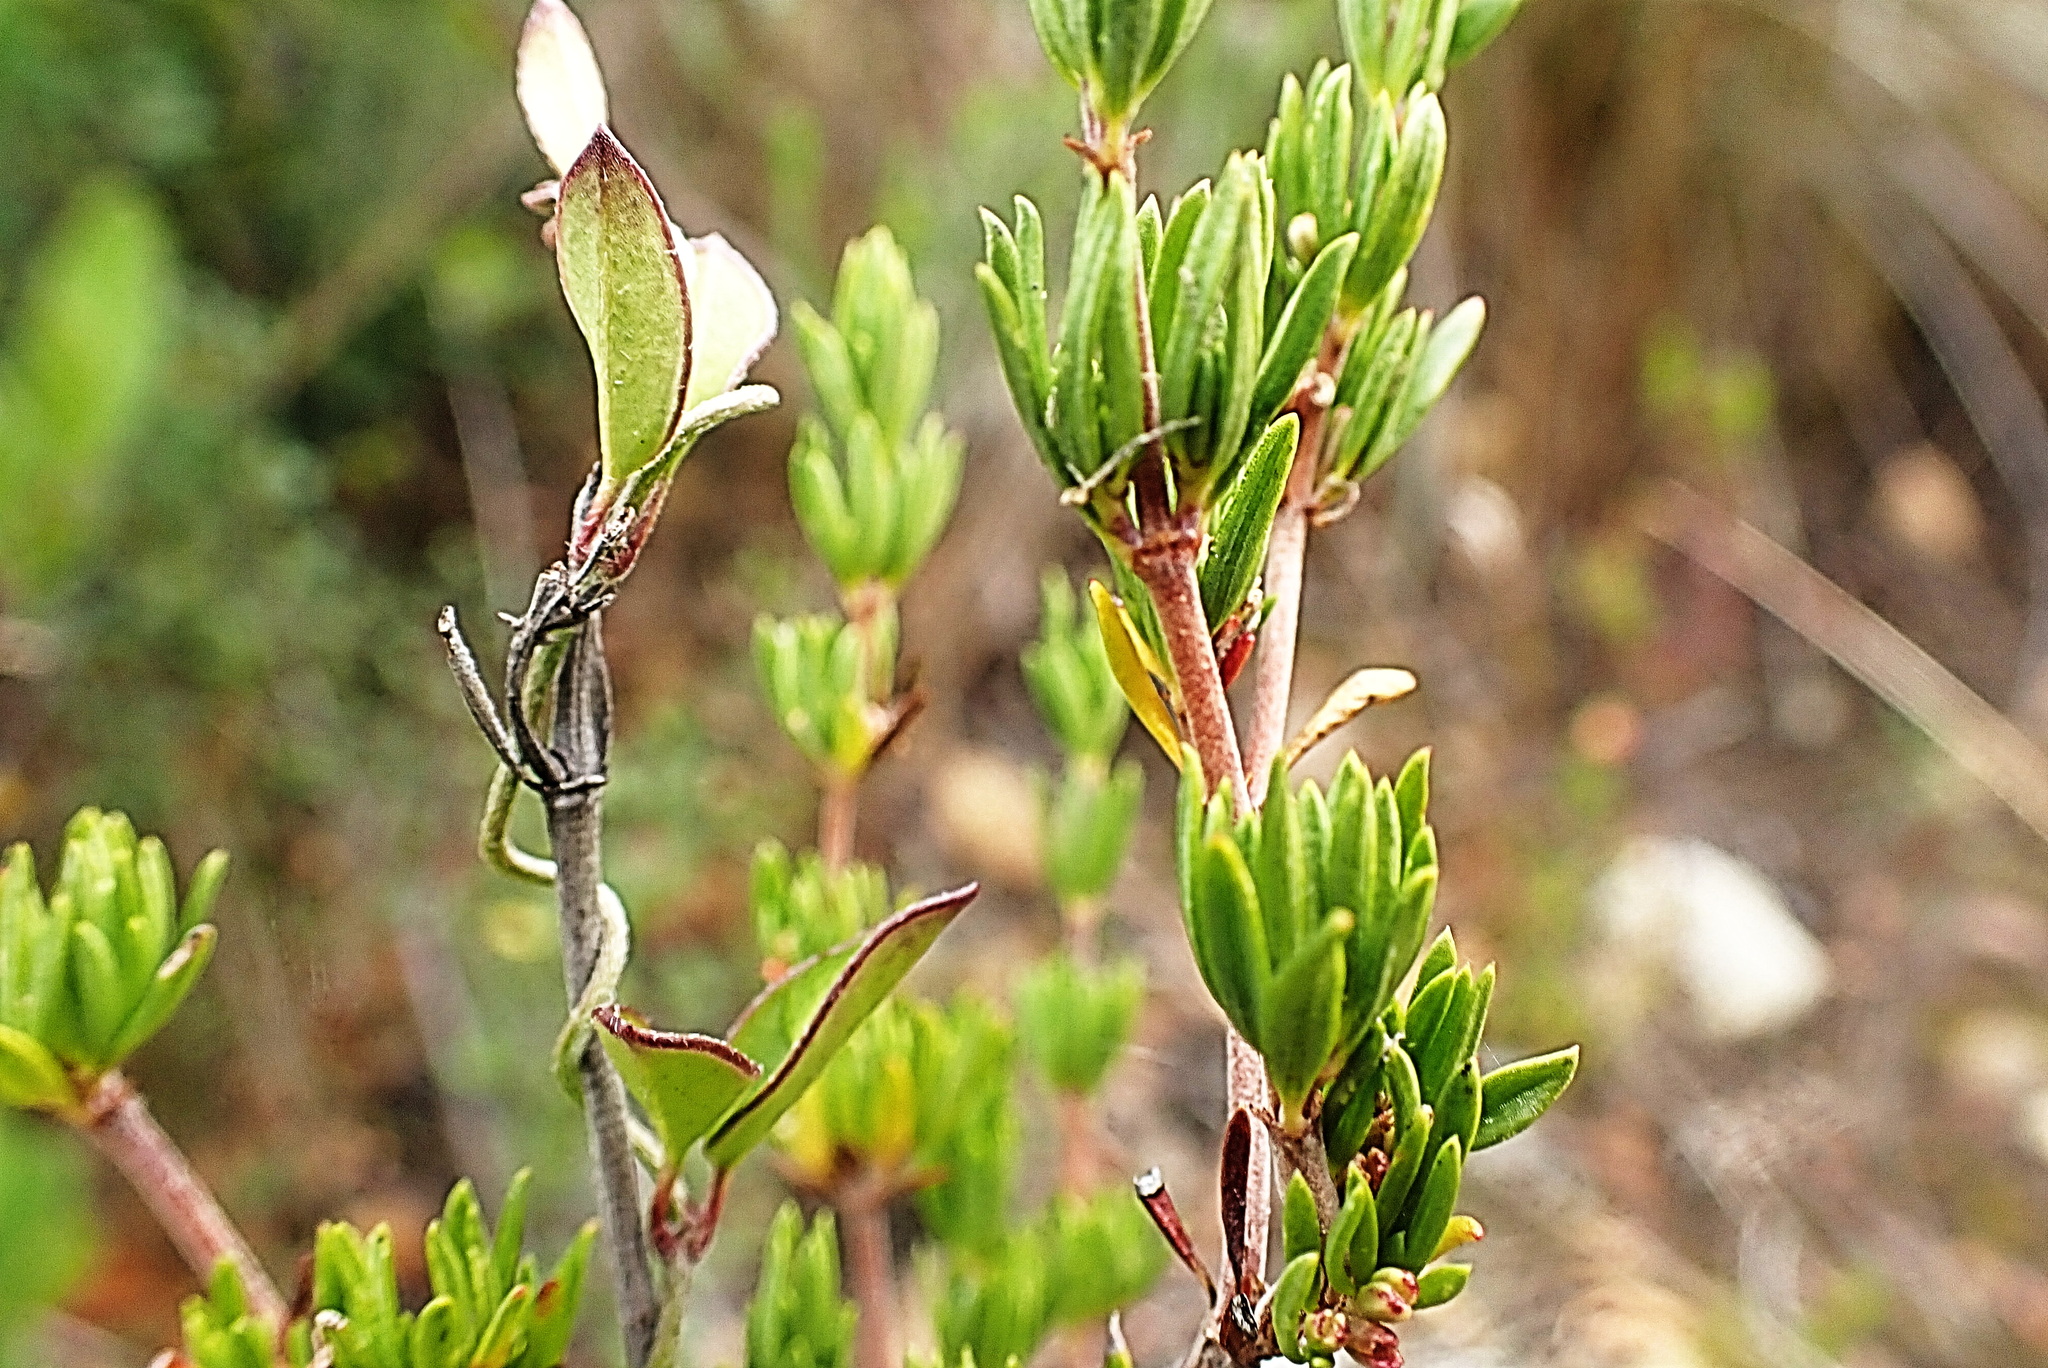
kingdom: Plantae
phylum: Tracheophyta
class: Magnoliopsida
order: Rosales
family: Rosaceae
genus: Cliffortia
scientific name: Cliffortia stricta
